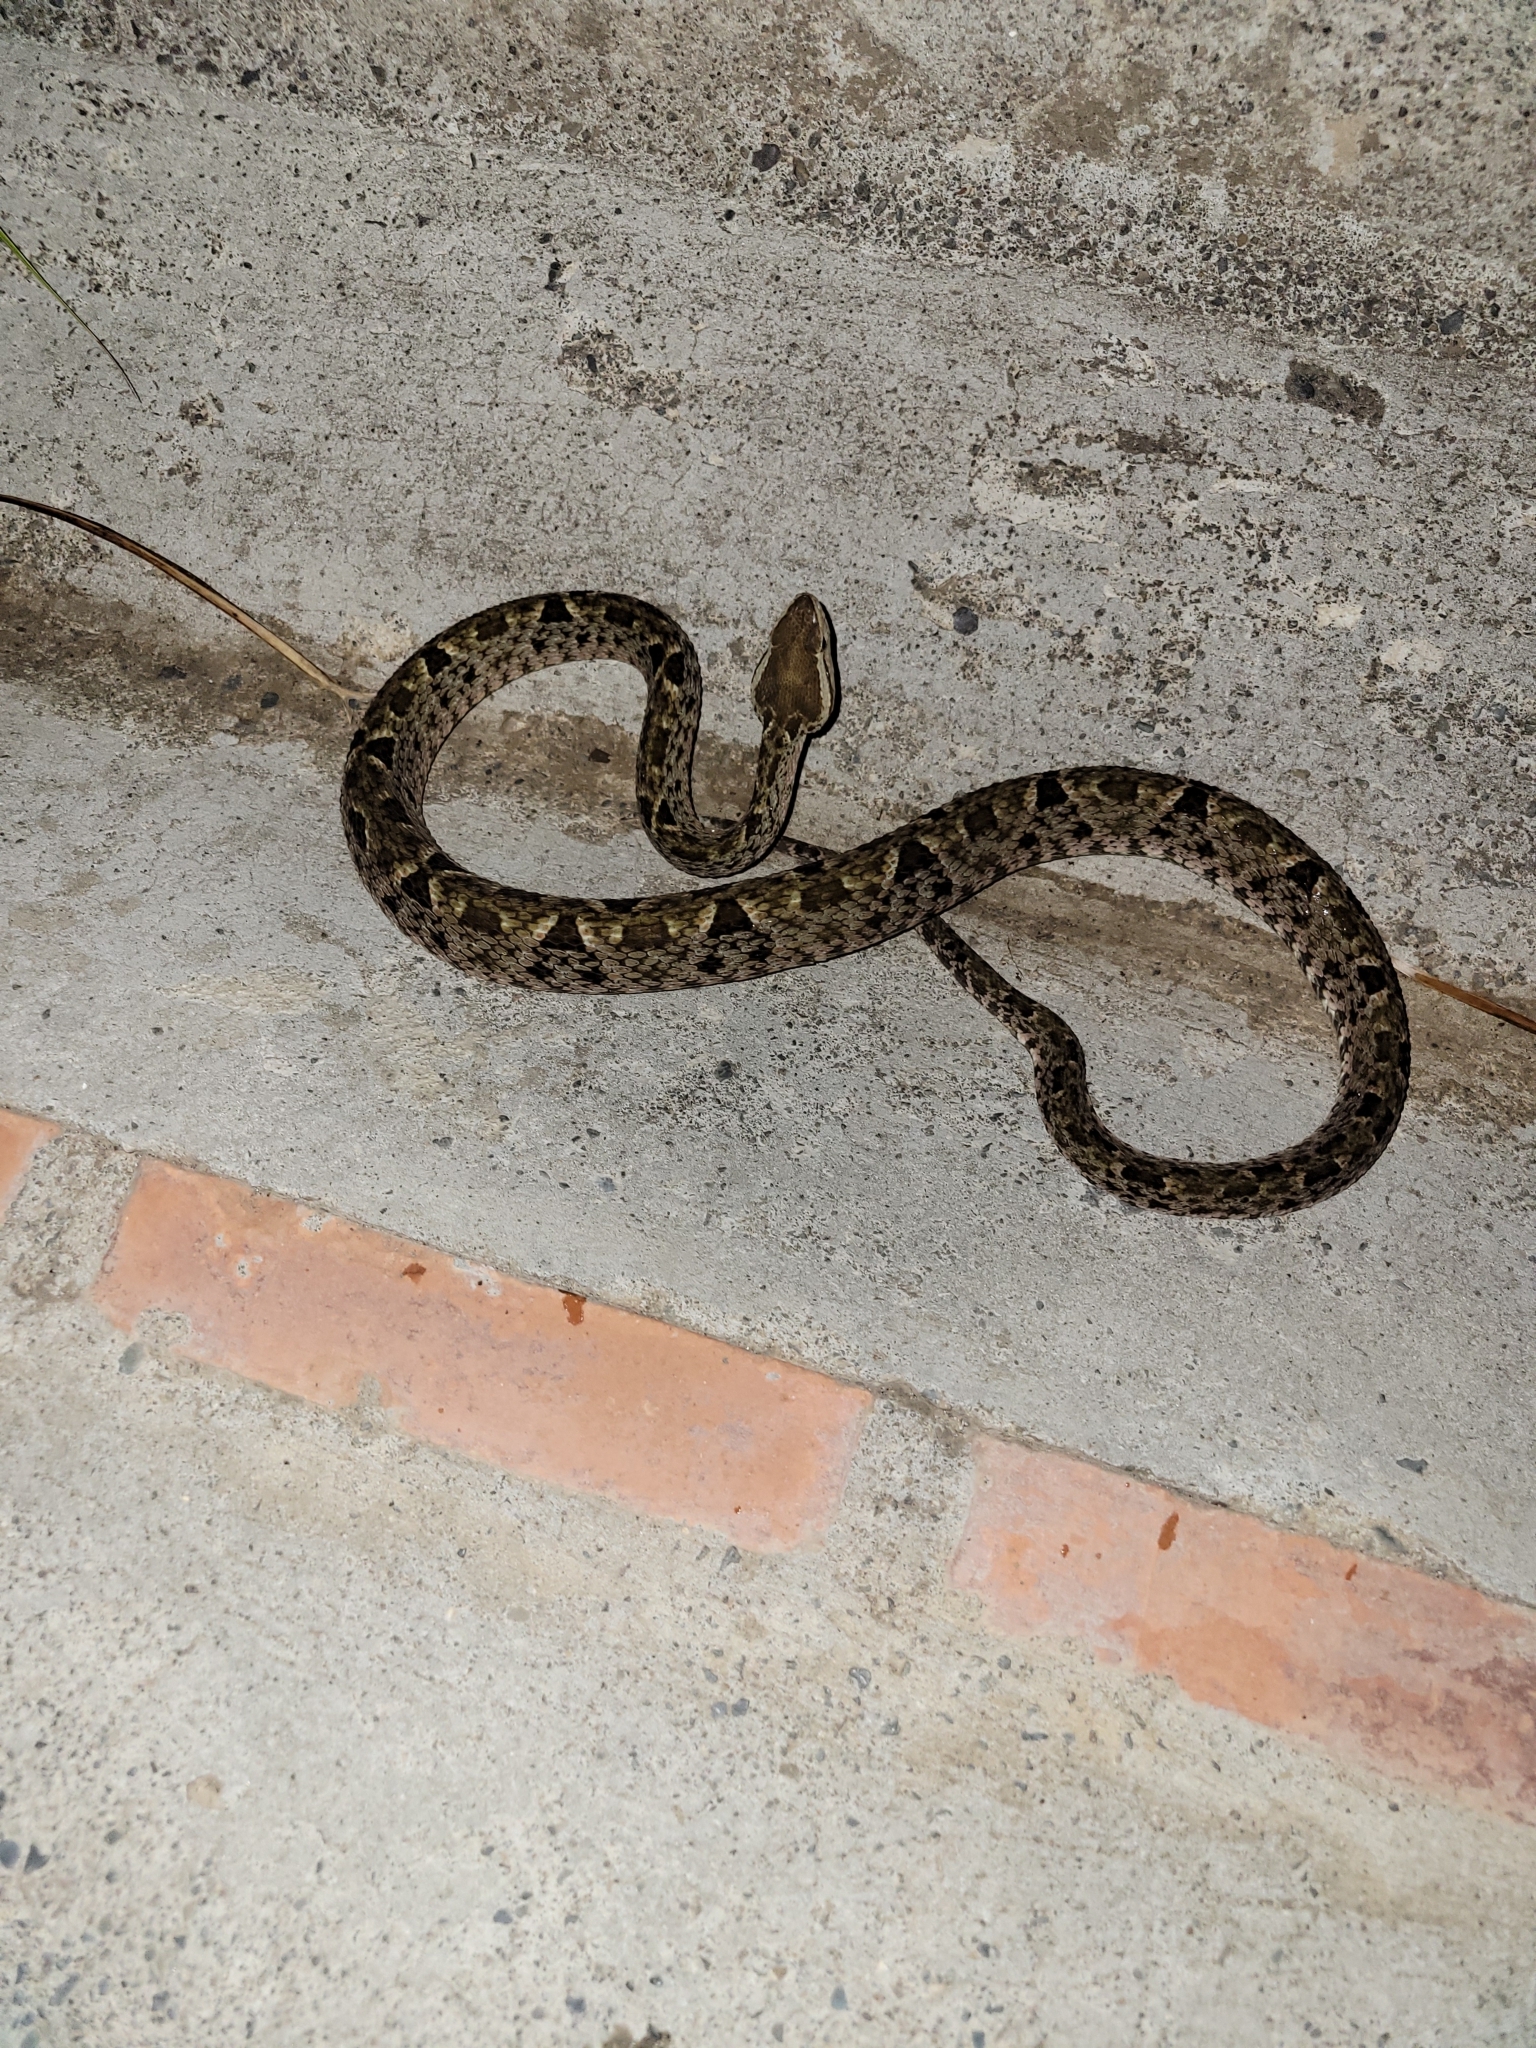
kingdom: Animalia
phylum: Chordata
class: Squamata
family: Viperidae
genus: Bothrops
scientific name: Bothrops asper
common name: Terciopelo
